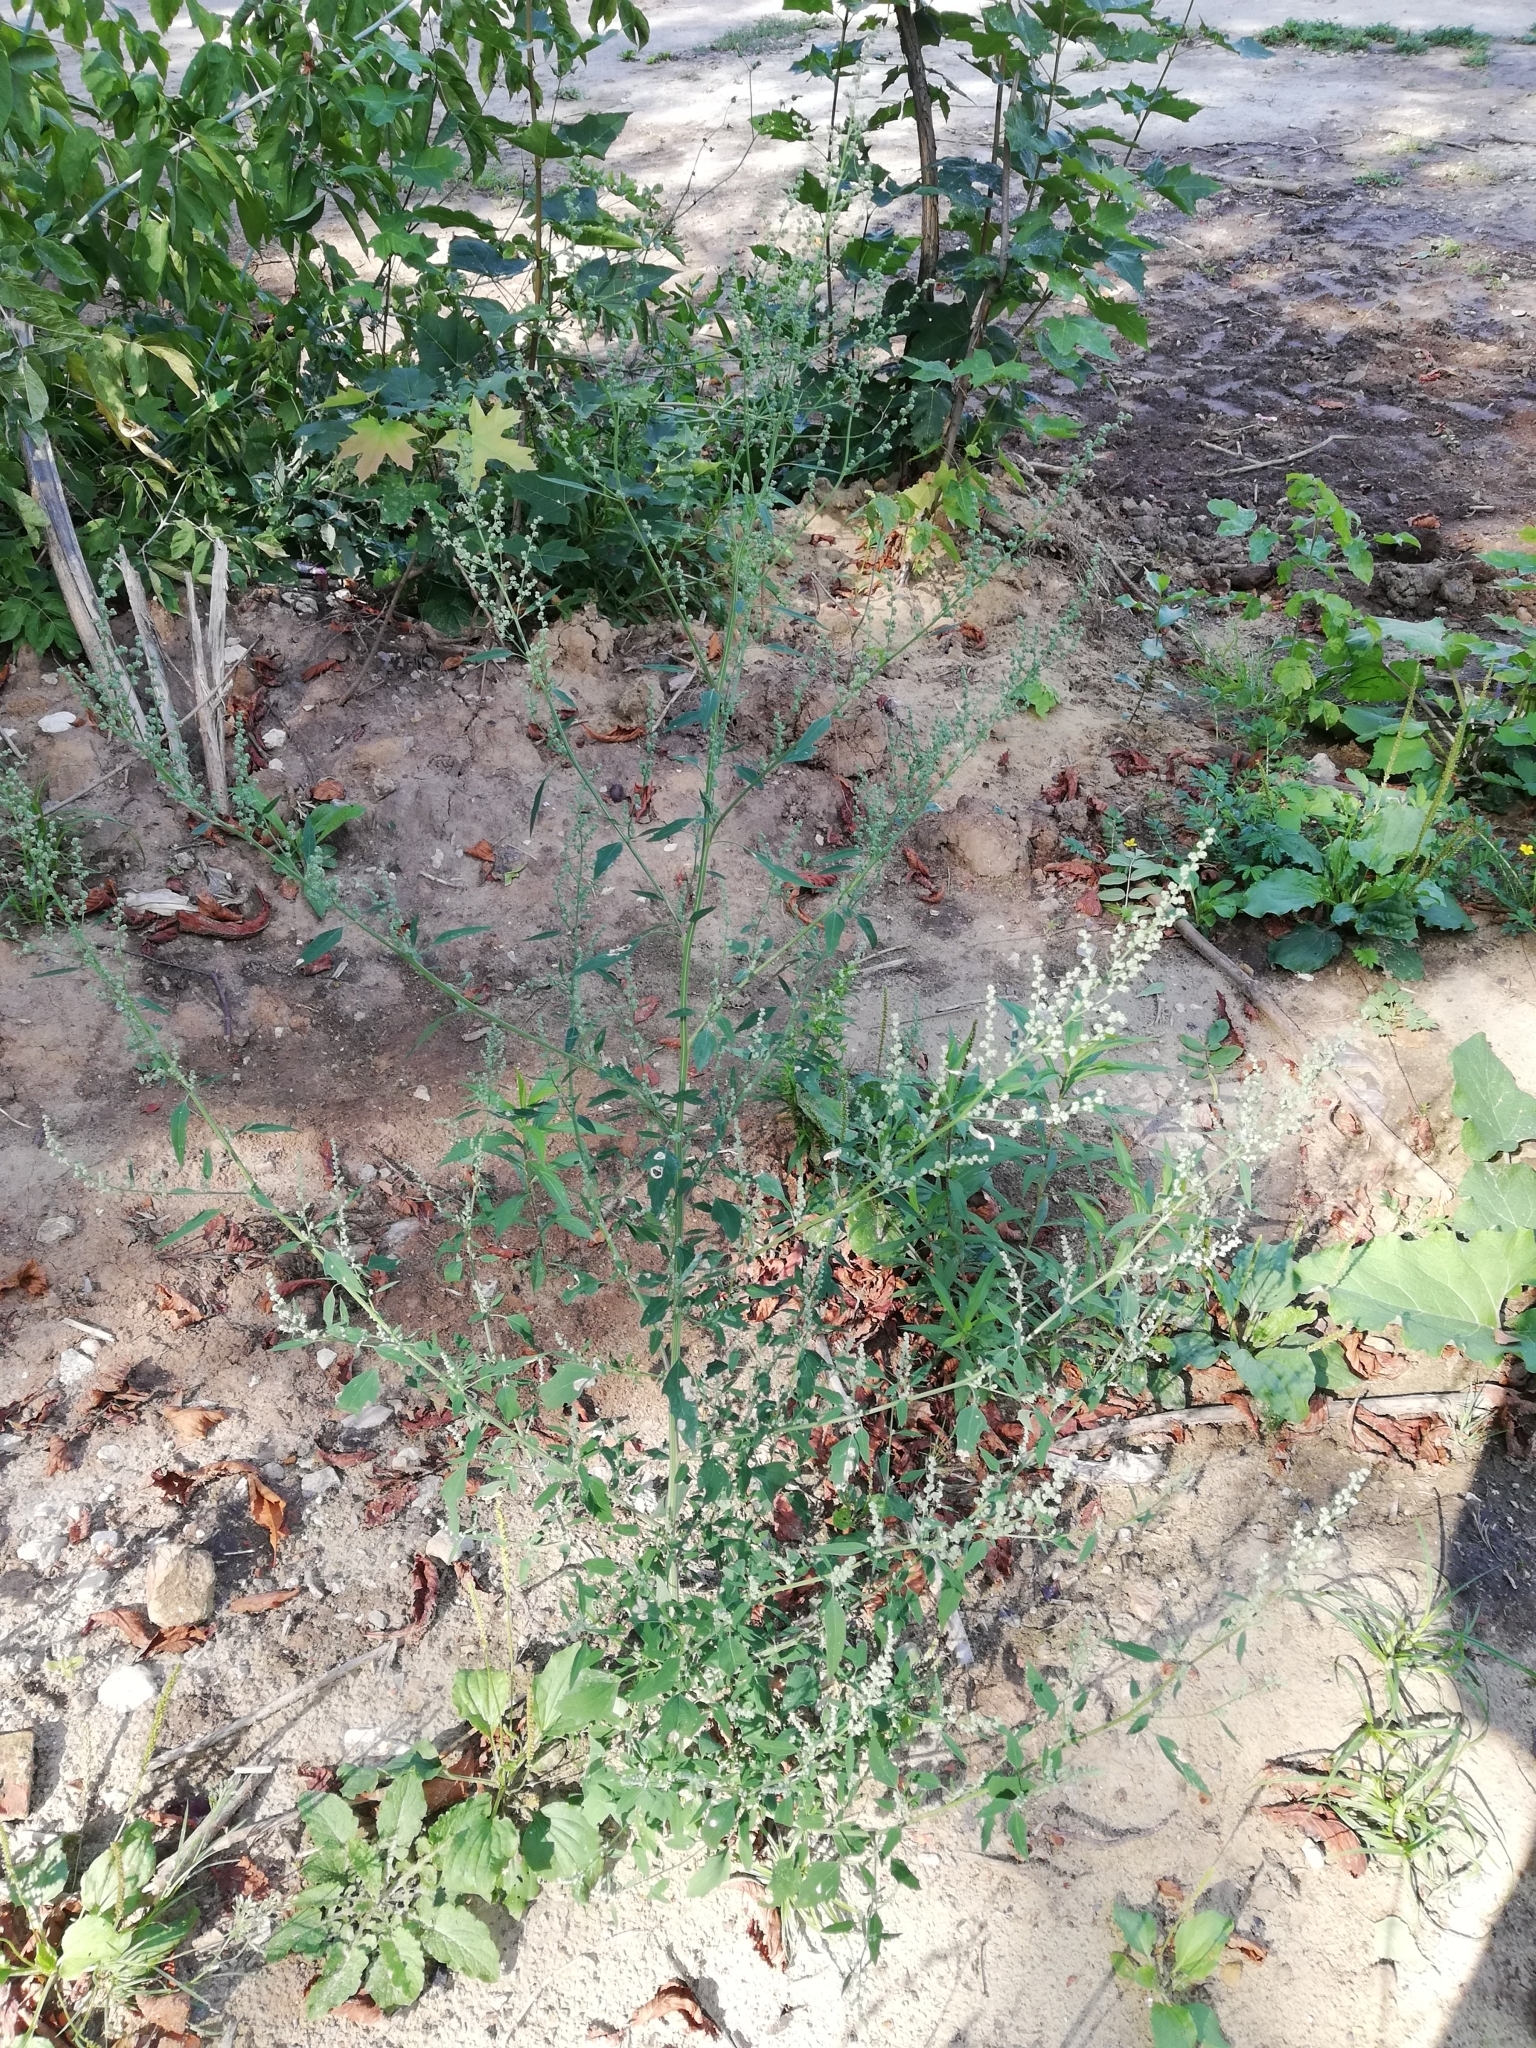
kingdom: Plantae
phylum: Tracheophyta
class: Magnoliopsida
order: Caryophyllales
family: Amaranthaceae
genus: Chenopodium
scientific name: Chenopodium album
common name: Fat-hen
